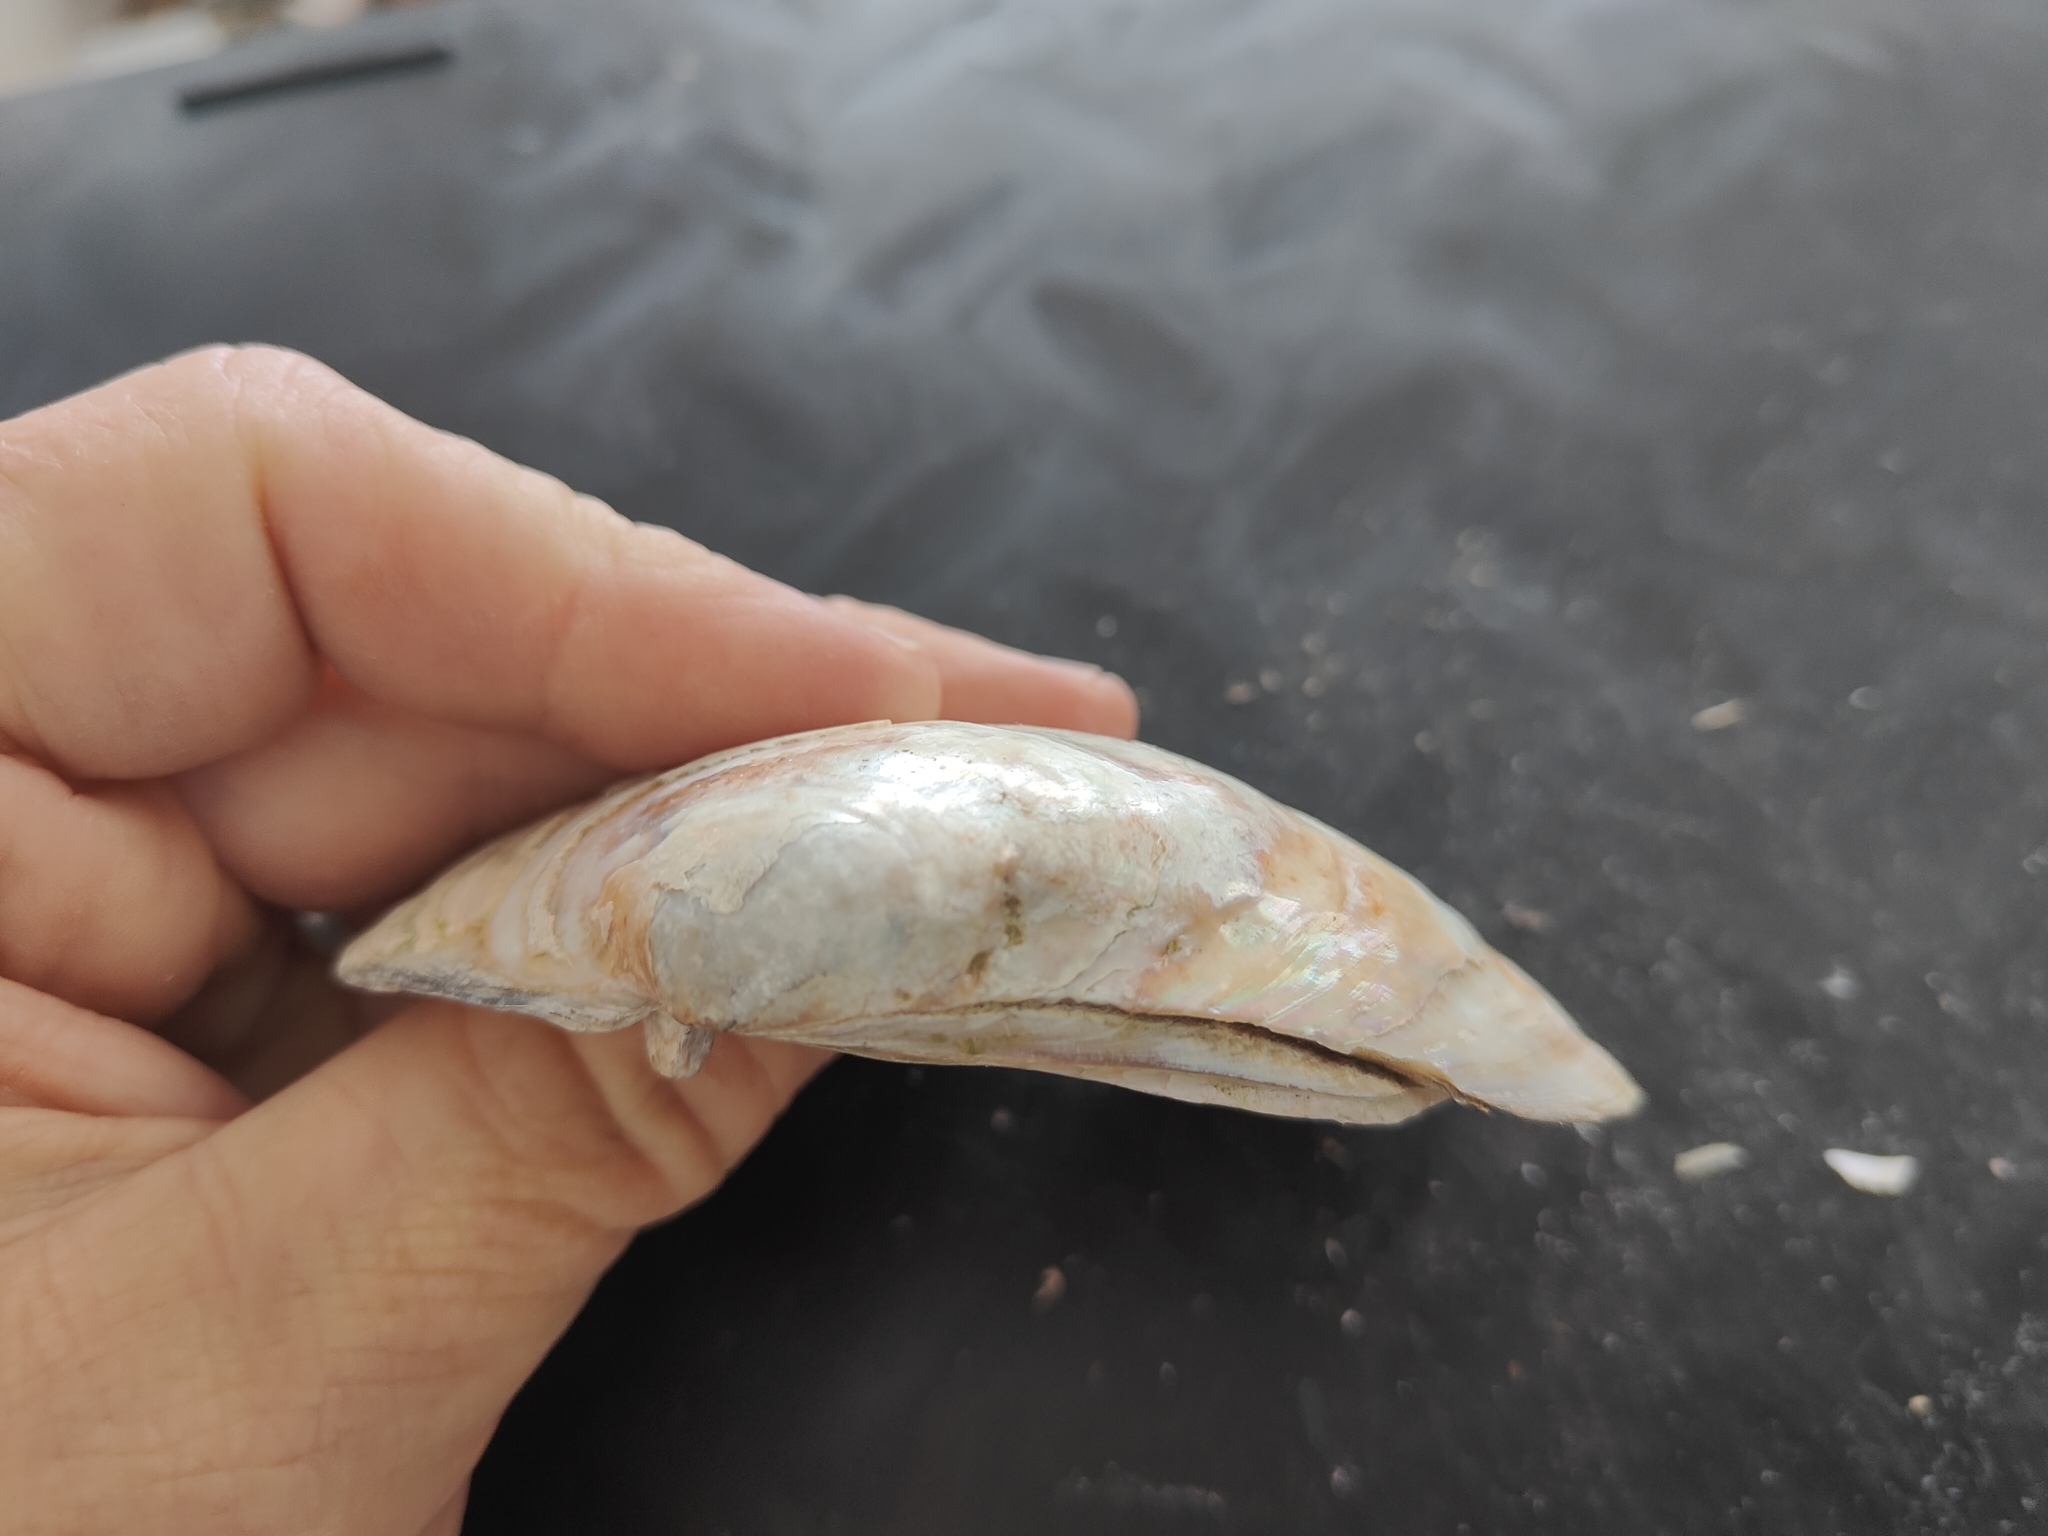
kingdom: Animalia
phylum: Mollusca
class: Bivalvia
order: Unionida
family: Unionidae
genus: Lampsilis
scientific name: Lampsilis cardium
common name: Plain pocketbook
